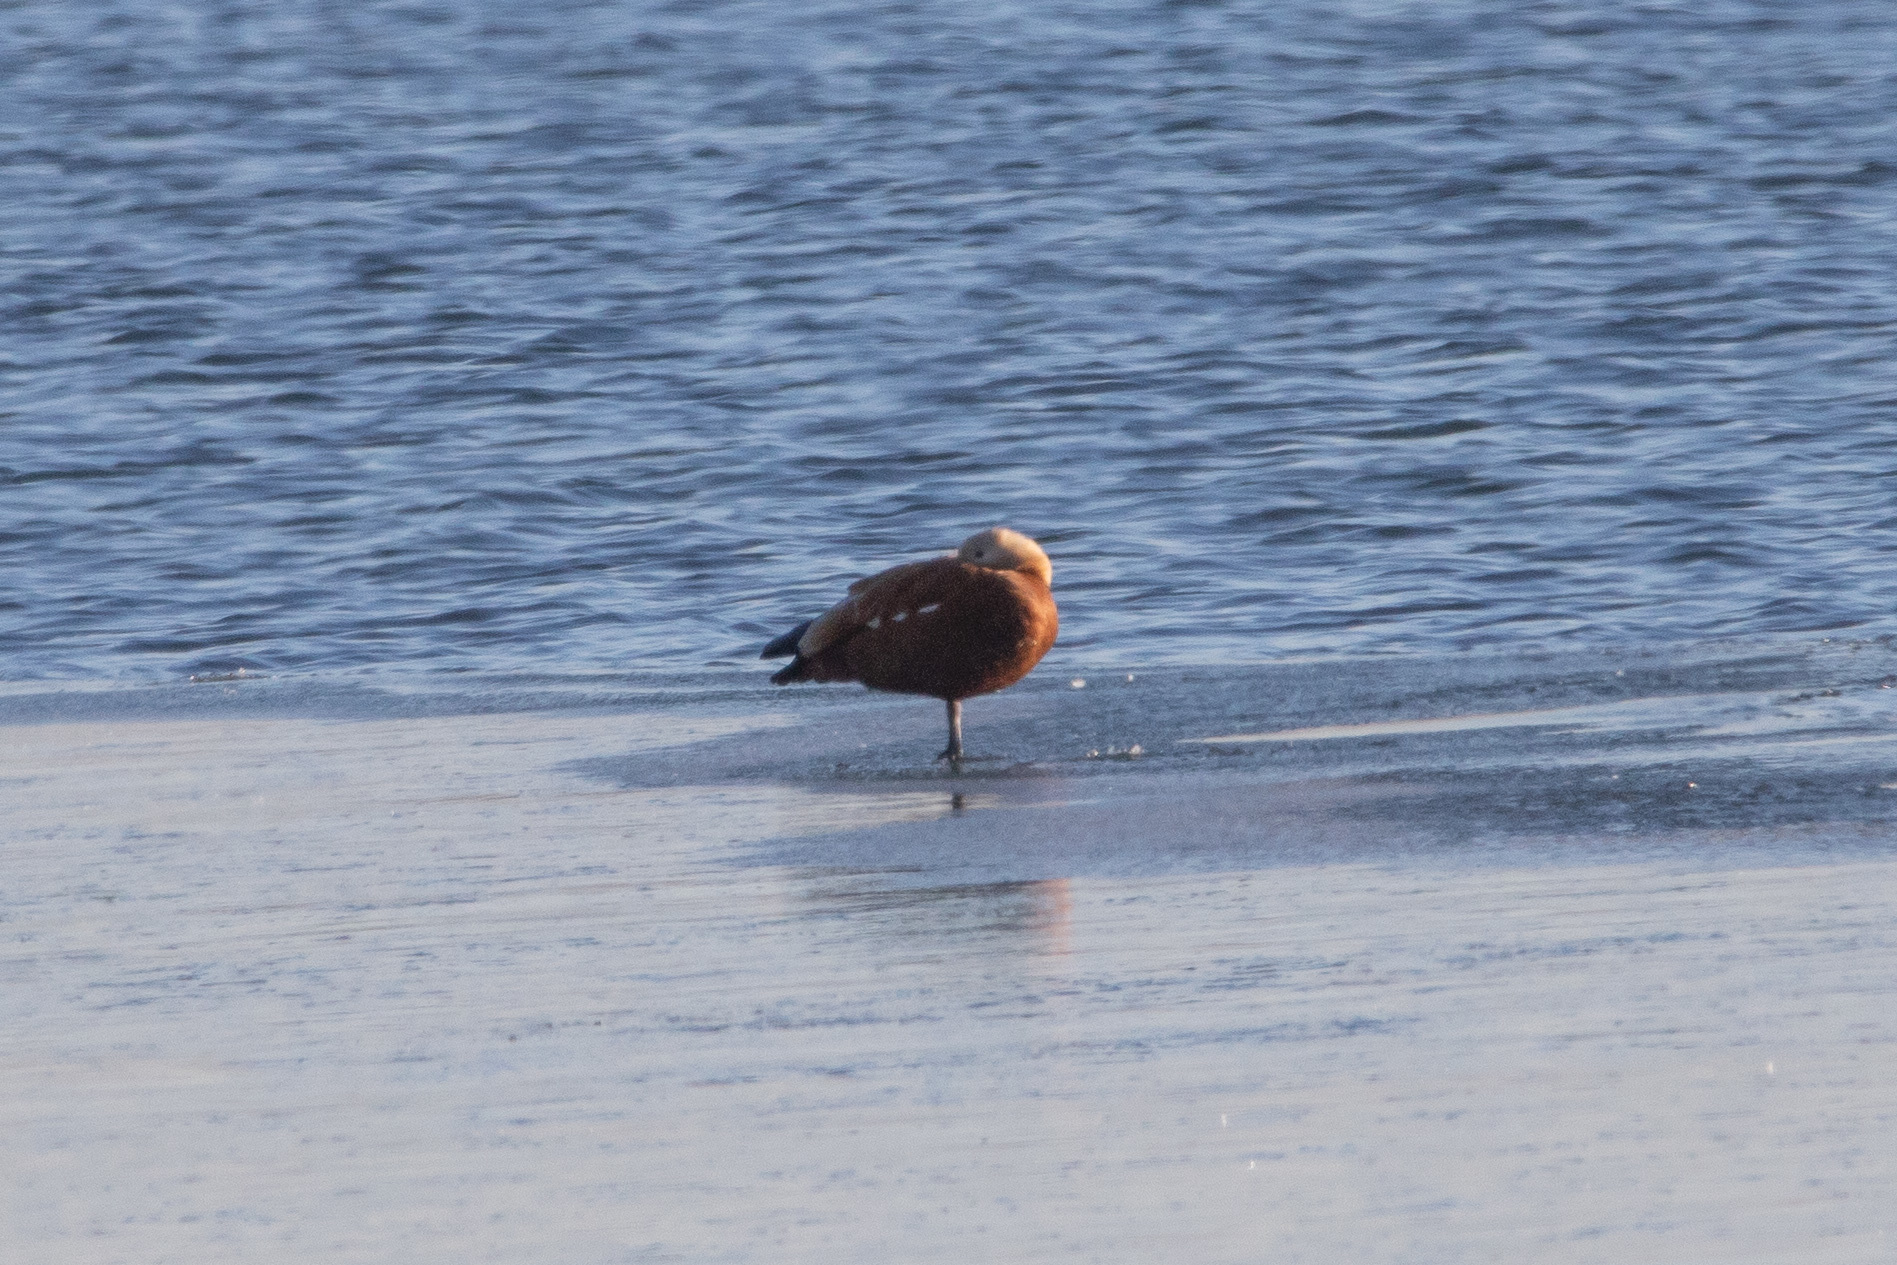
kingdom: Animalia
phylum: Chordata
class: Aves
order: Anseriformes
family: Anatidae
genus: Tadorna
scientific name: Tadorna ferruginea
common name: Ruddy shelduck
